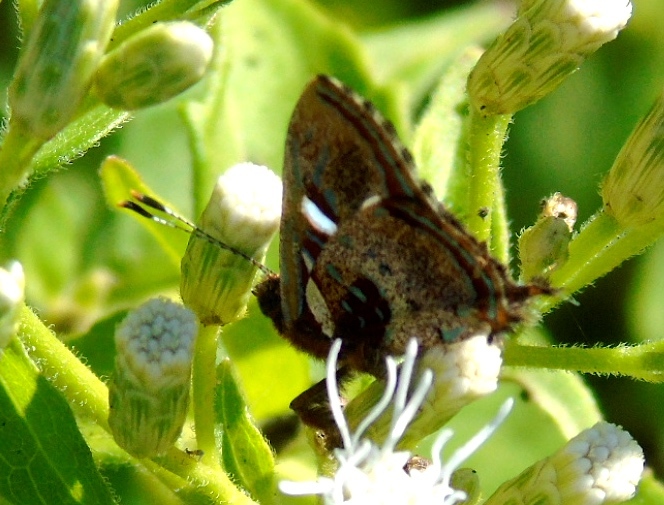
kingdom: Animalia
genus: Anteros
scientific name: Anteros carausius
